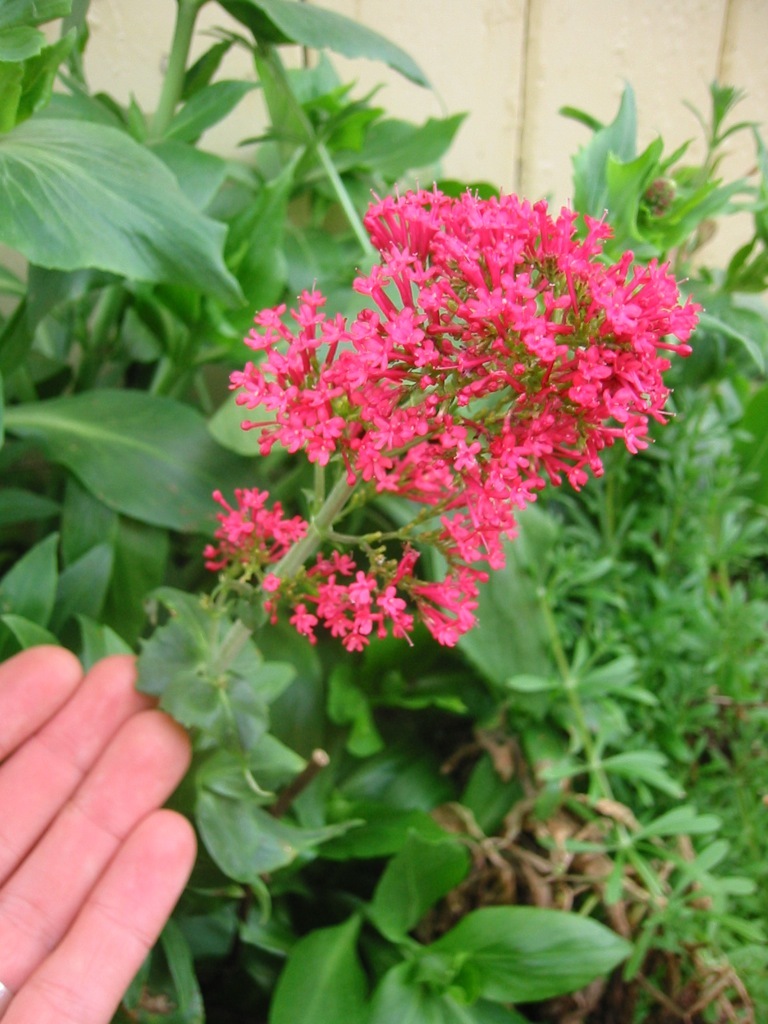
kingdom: Plantae
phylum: Tracheophyta
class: Magnoliopsida
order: Dipsacales
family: Caprifoliaceae
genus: Centranthus
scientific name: Centranthus ruber
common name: Red valerian
